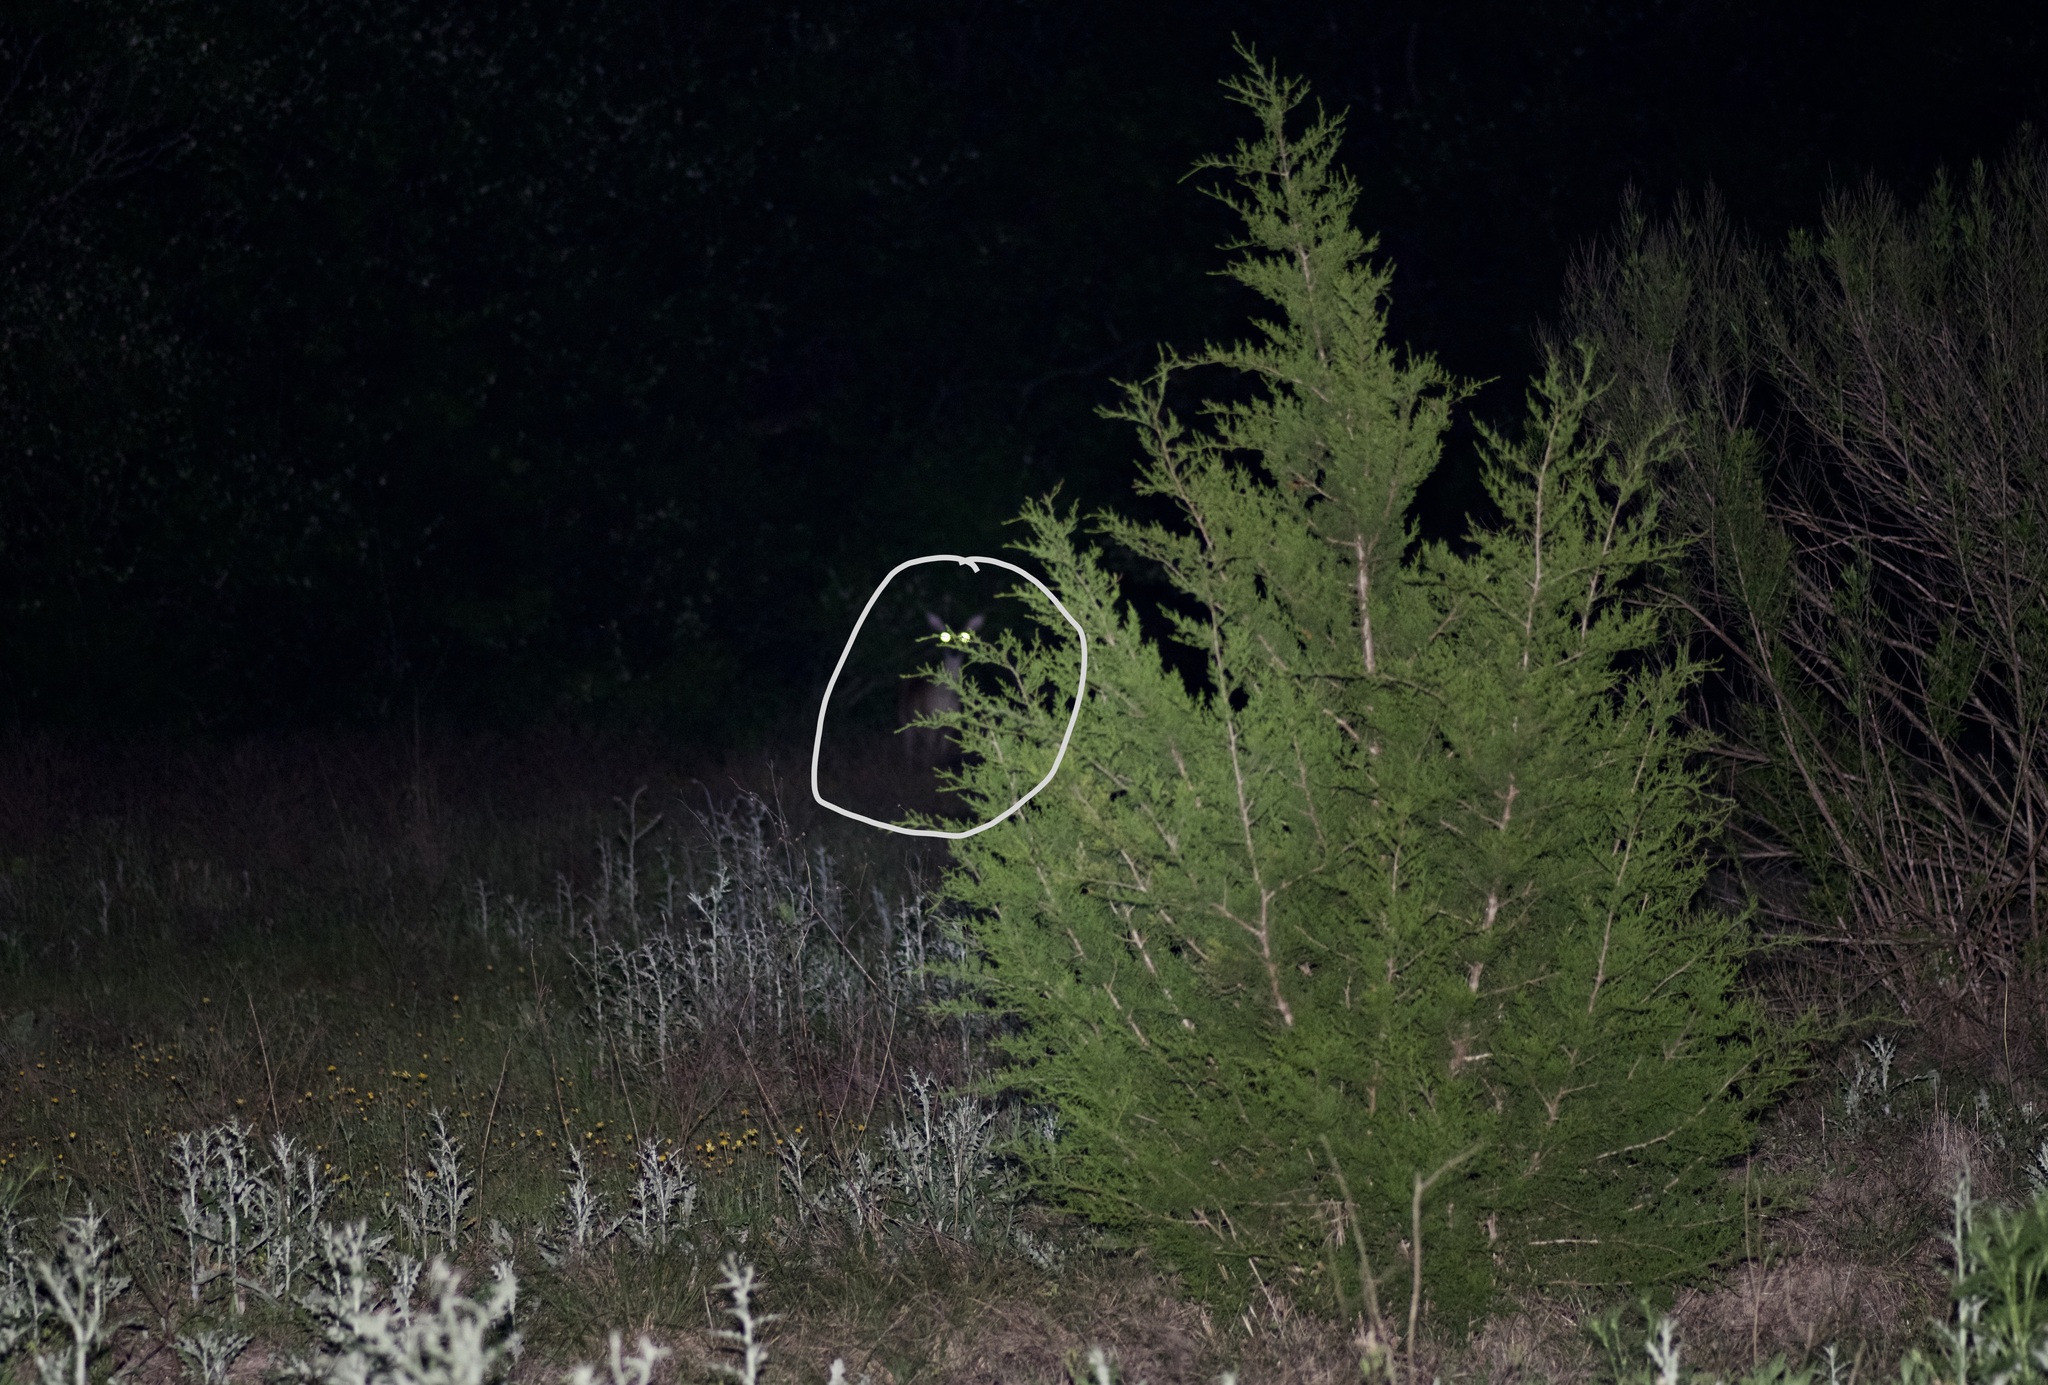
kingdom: Animalia
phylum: Chordata
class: Mammalia
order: Artiodactyla
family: Cervidae
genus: Odocoileus
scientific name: Odocoileus virginianus
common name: White-tailed deer
